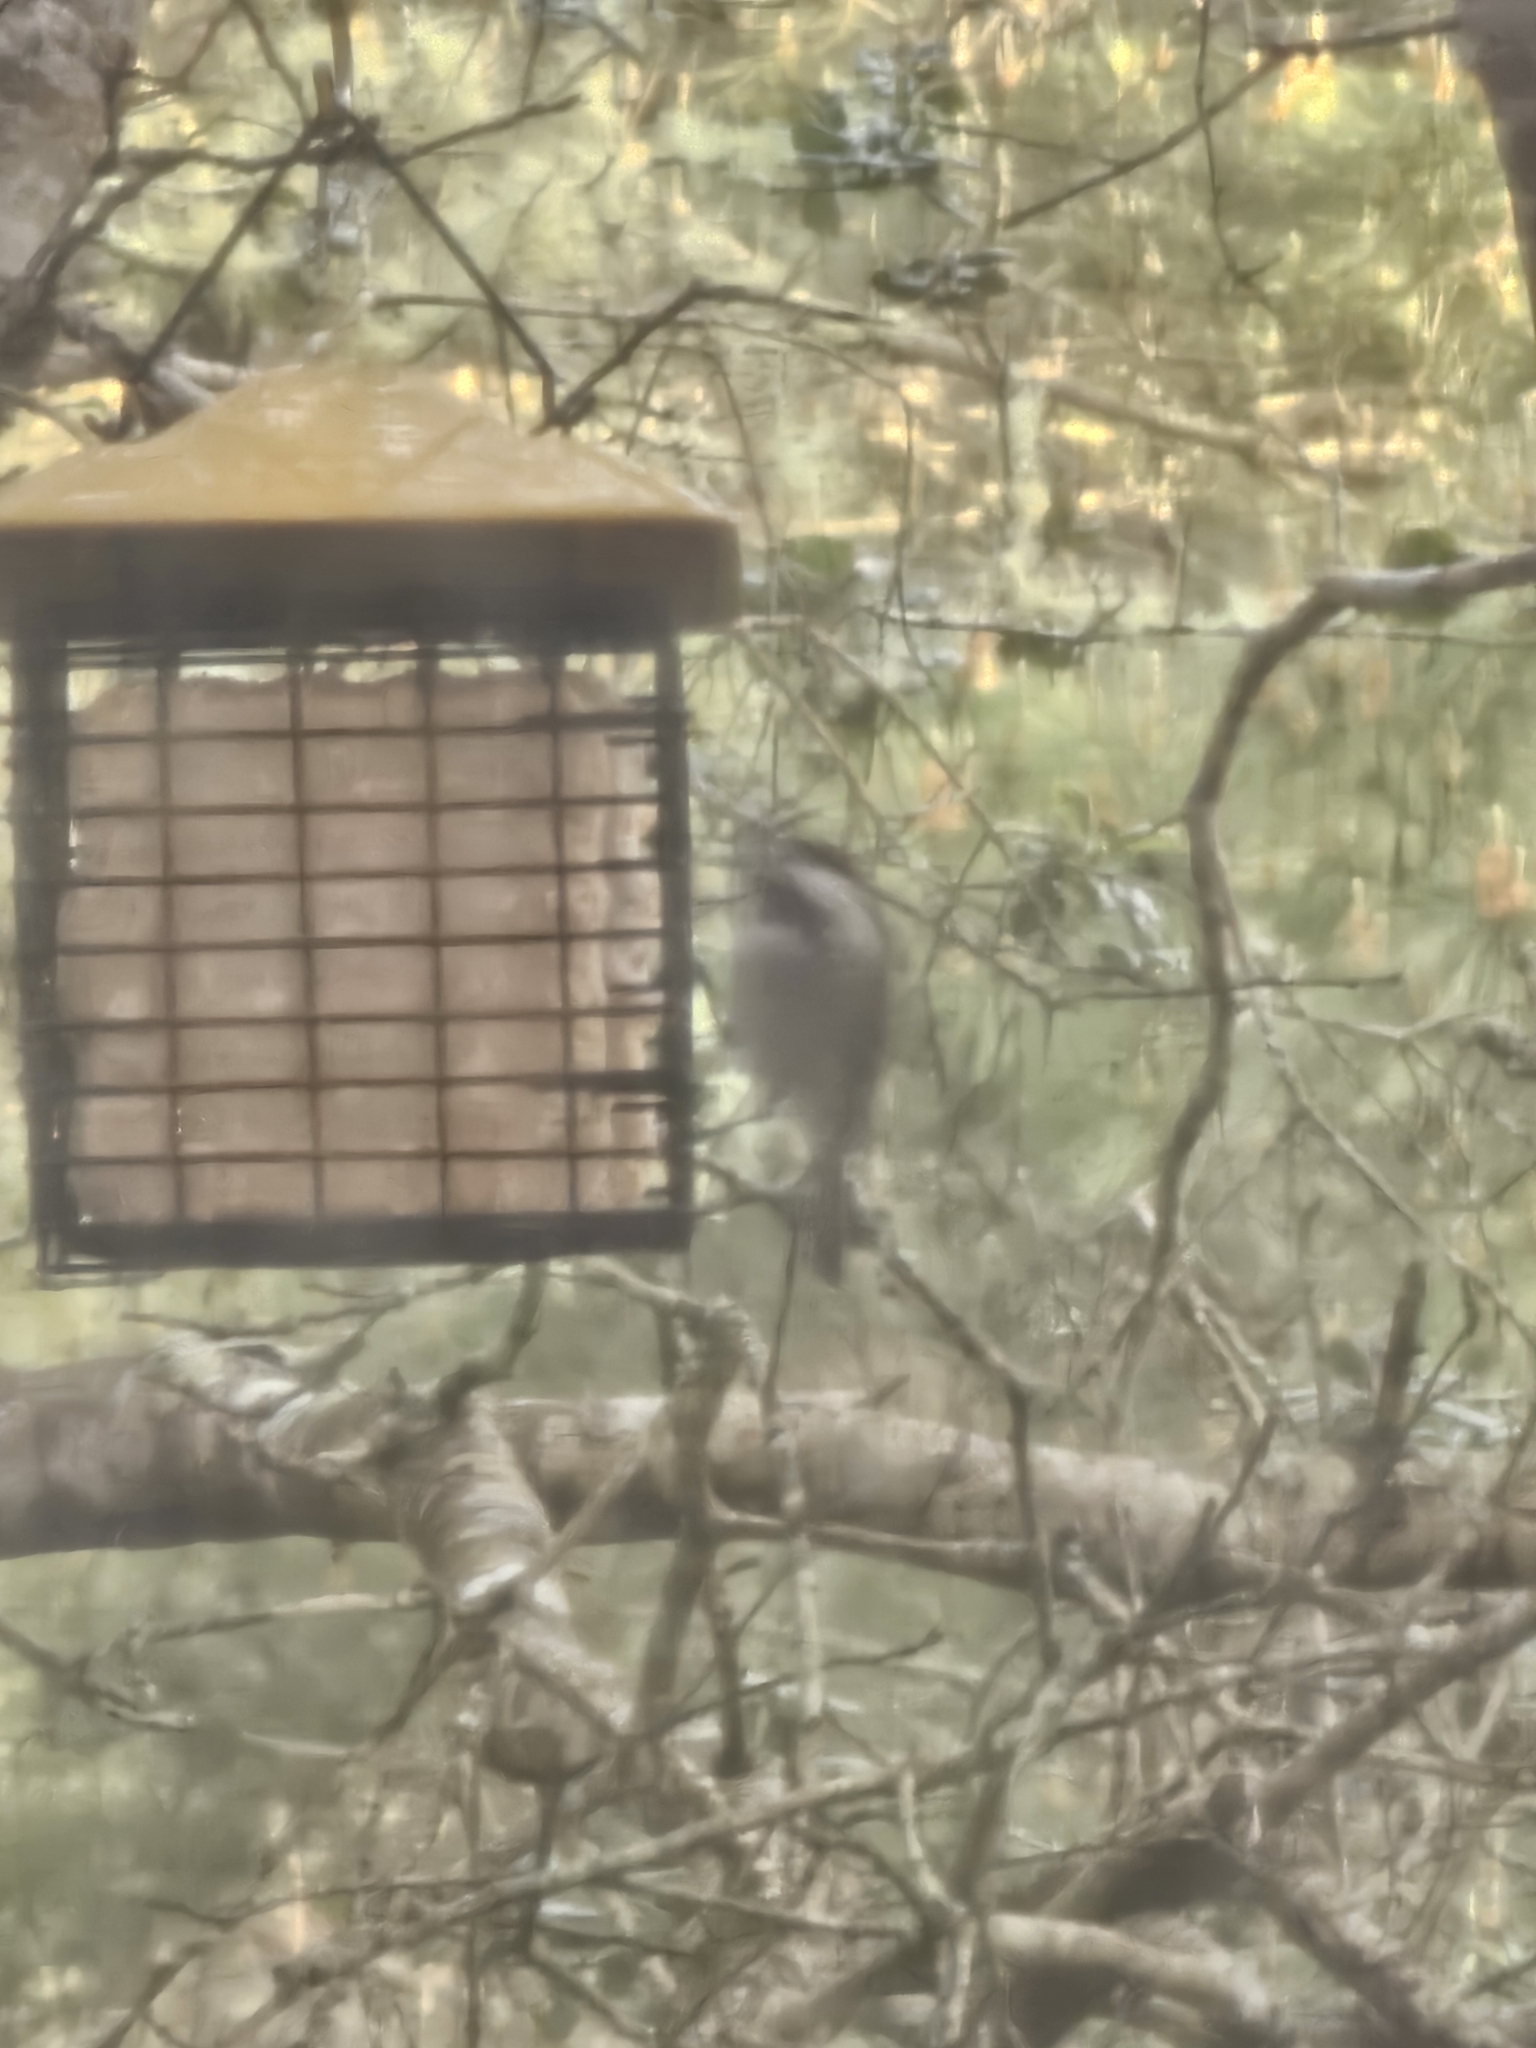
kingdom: Animalia
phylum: Chordata
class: Aves
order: Passeriformes
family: Paridae
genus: Poecile
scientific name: Poecile rufescens
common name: Chestnut-backed chickadee
